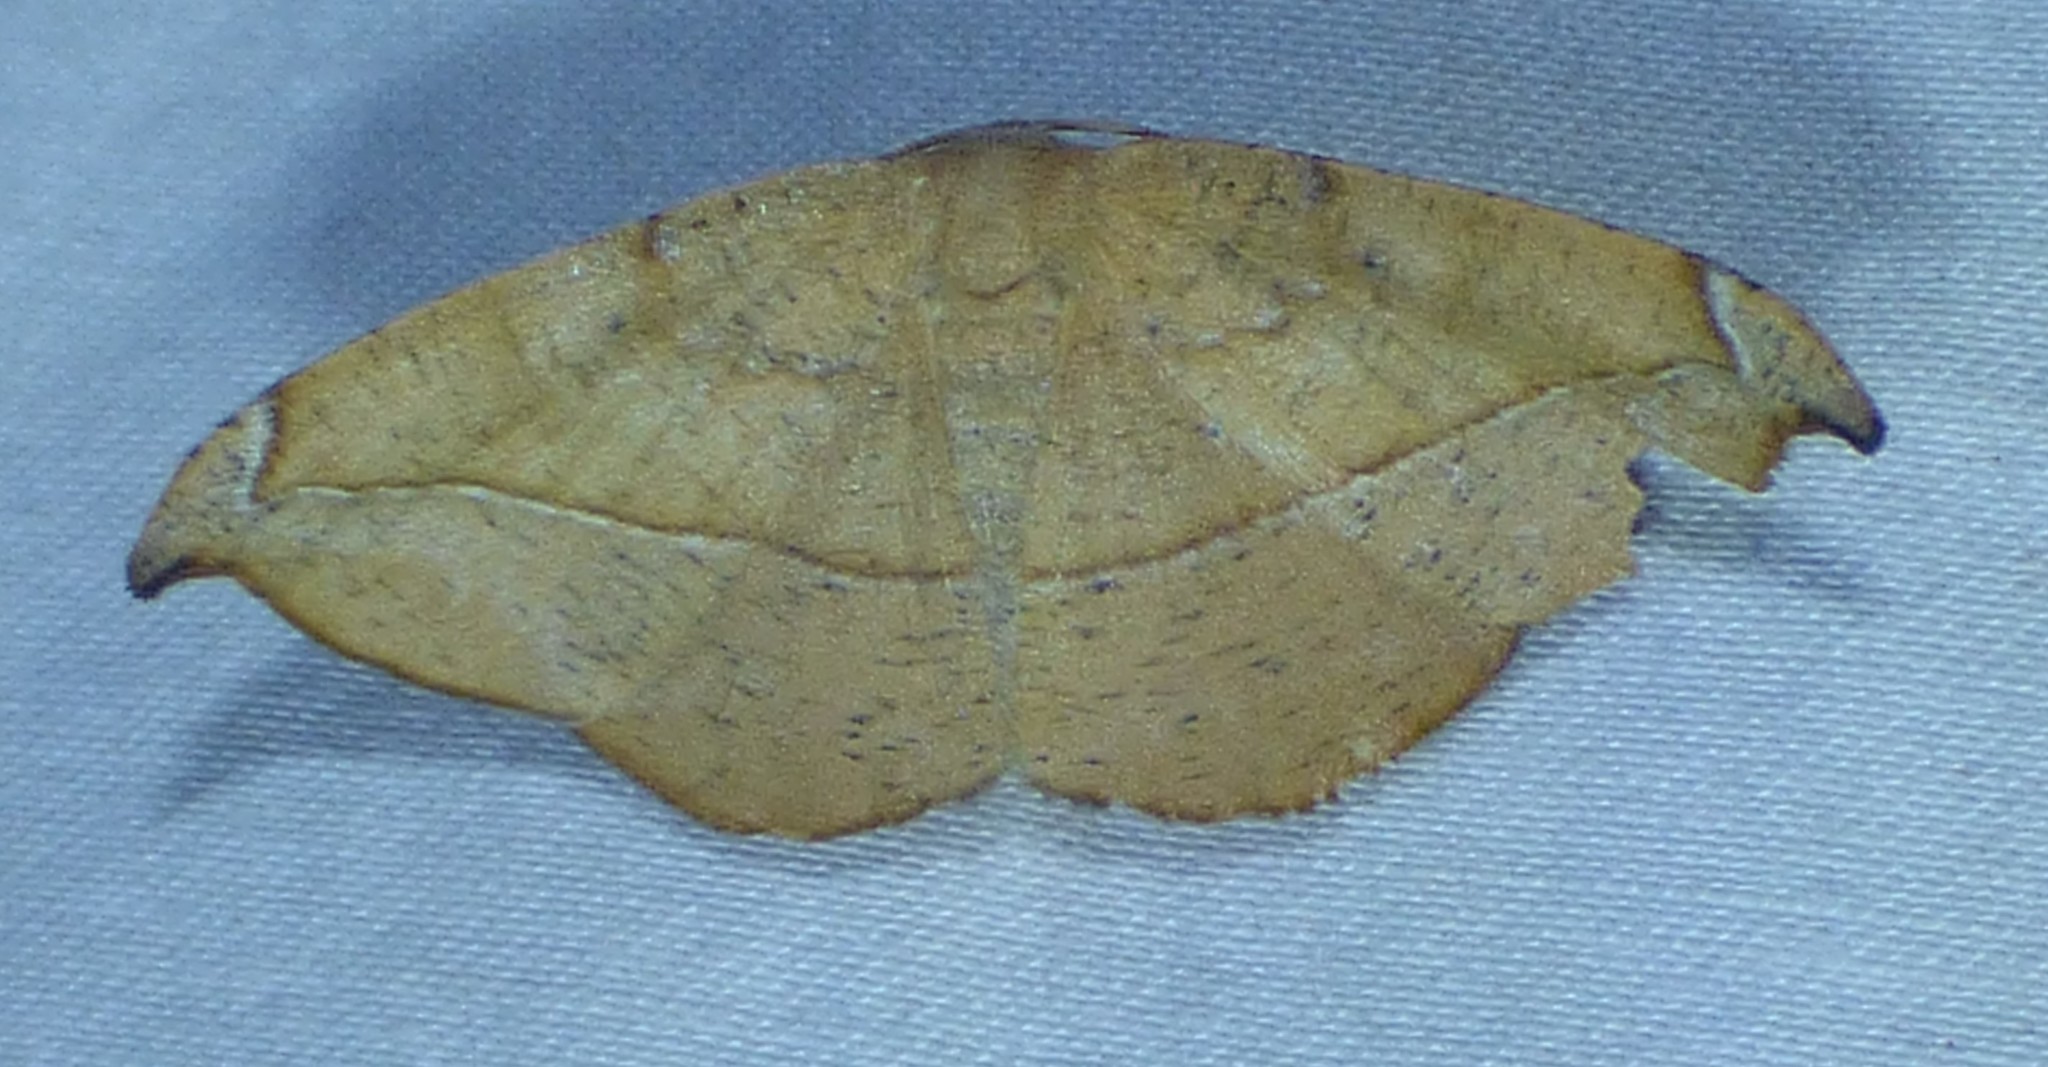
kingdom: Animalia
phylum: Arthropoda
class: Insecta
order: Lepidoptera
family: Geometridae
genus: Patalene
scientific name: Patalene olyzonaria
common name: Juniper geometer moth
